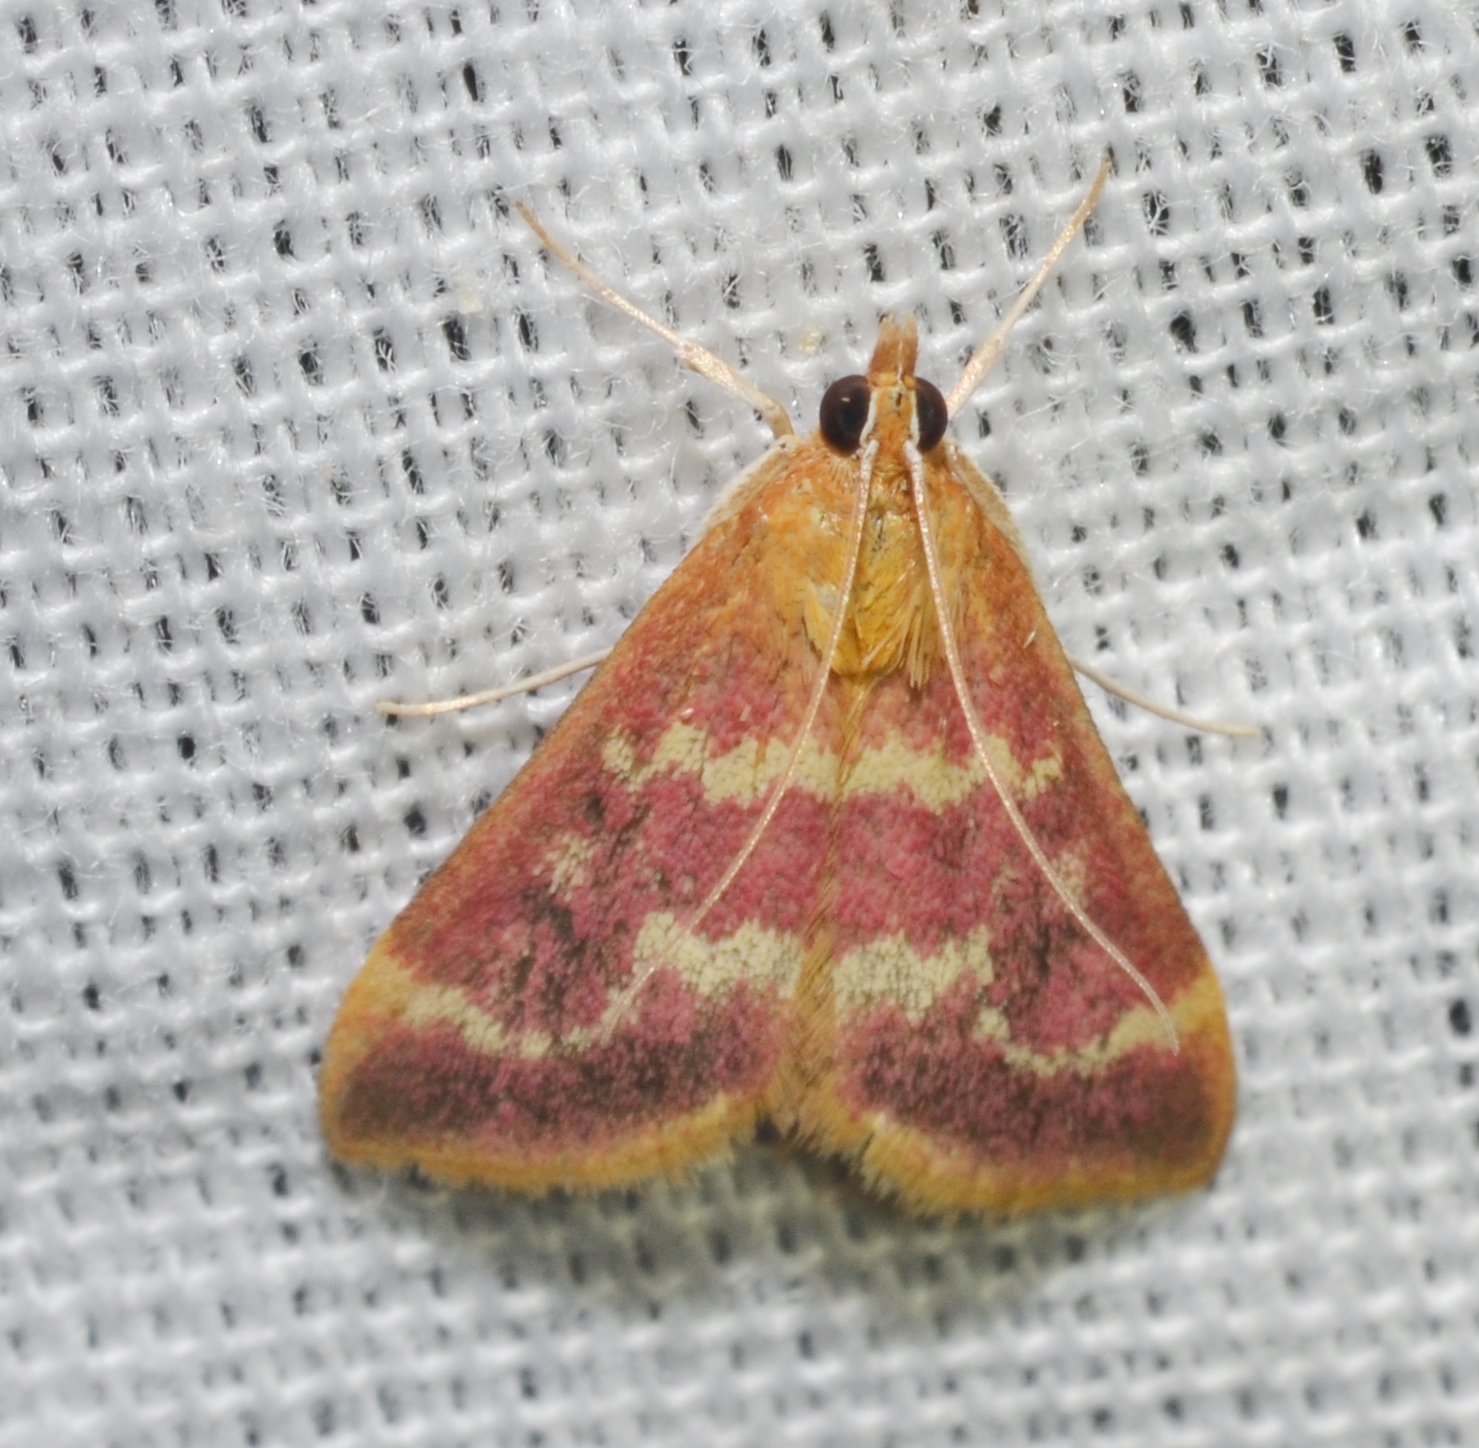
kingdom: Animalia
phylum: Arthropoda
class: Insecta
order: Lepidoptera
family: Crambidae
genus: Pyrausta
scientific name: Pyrausta signatalis
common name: Raspberry pyrausta moth
